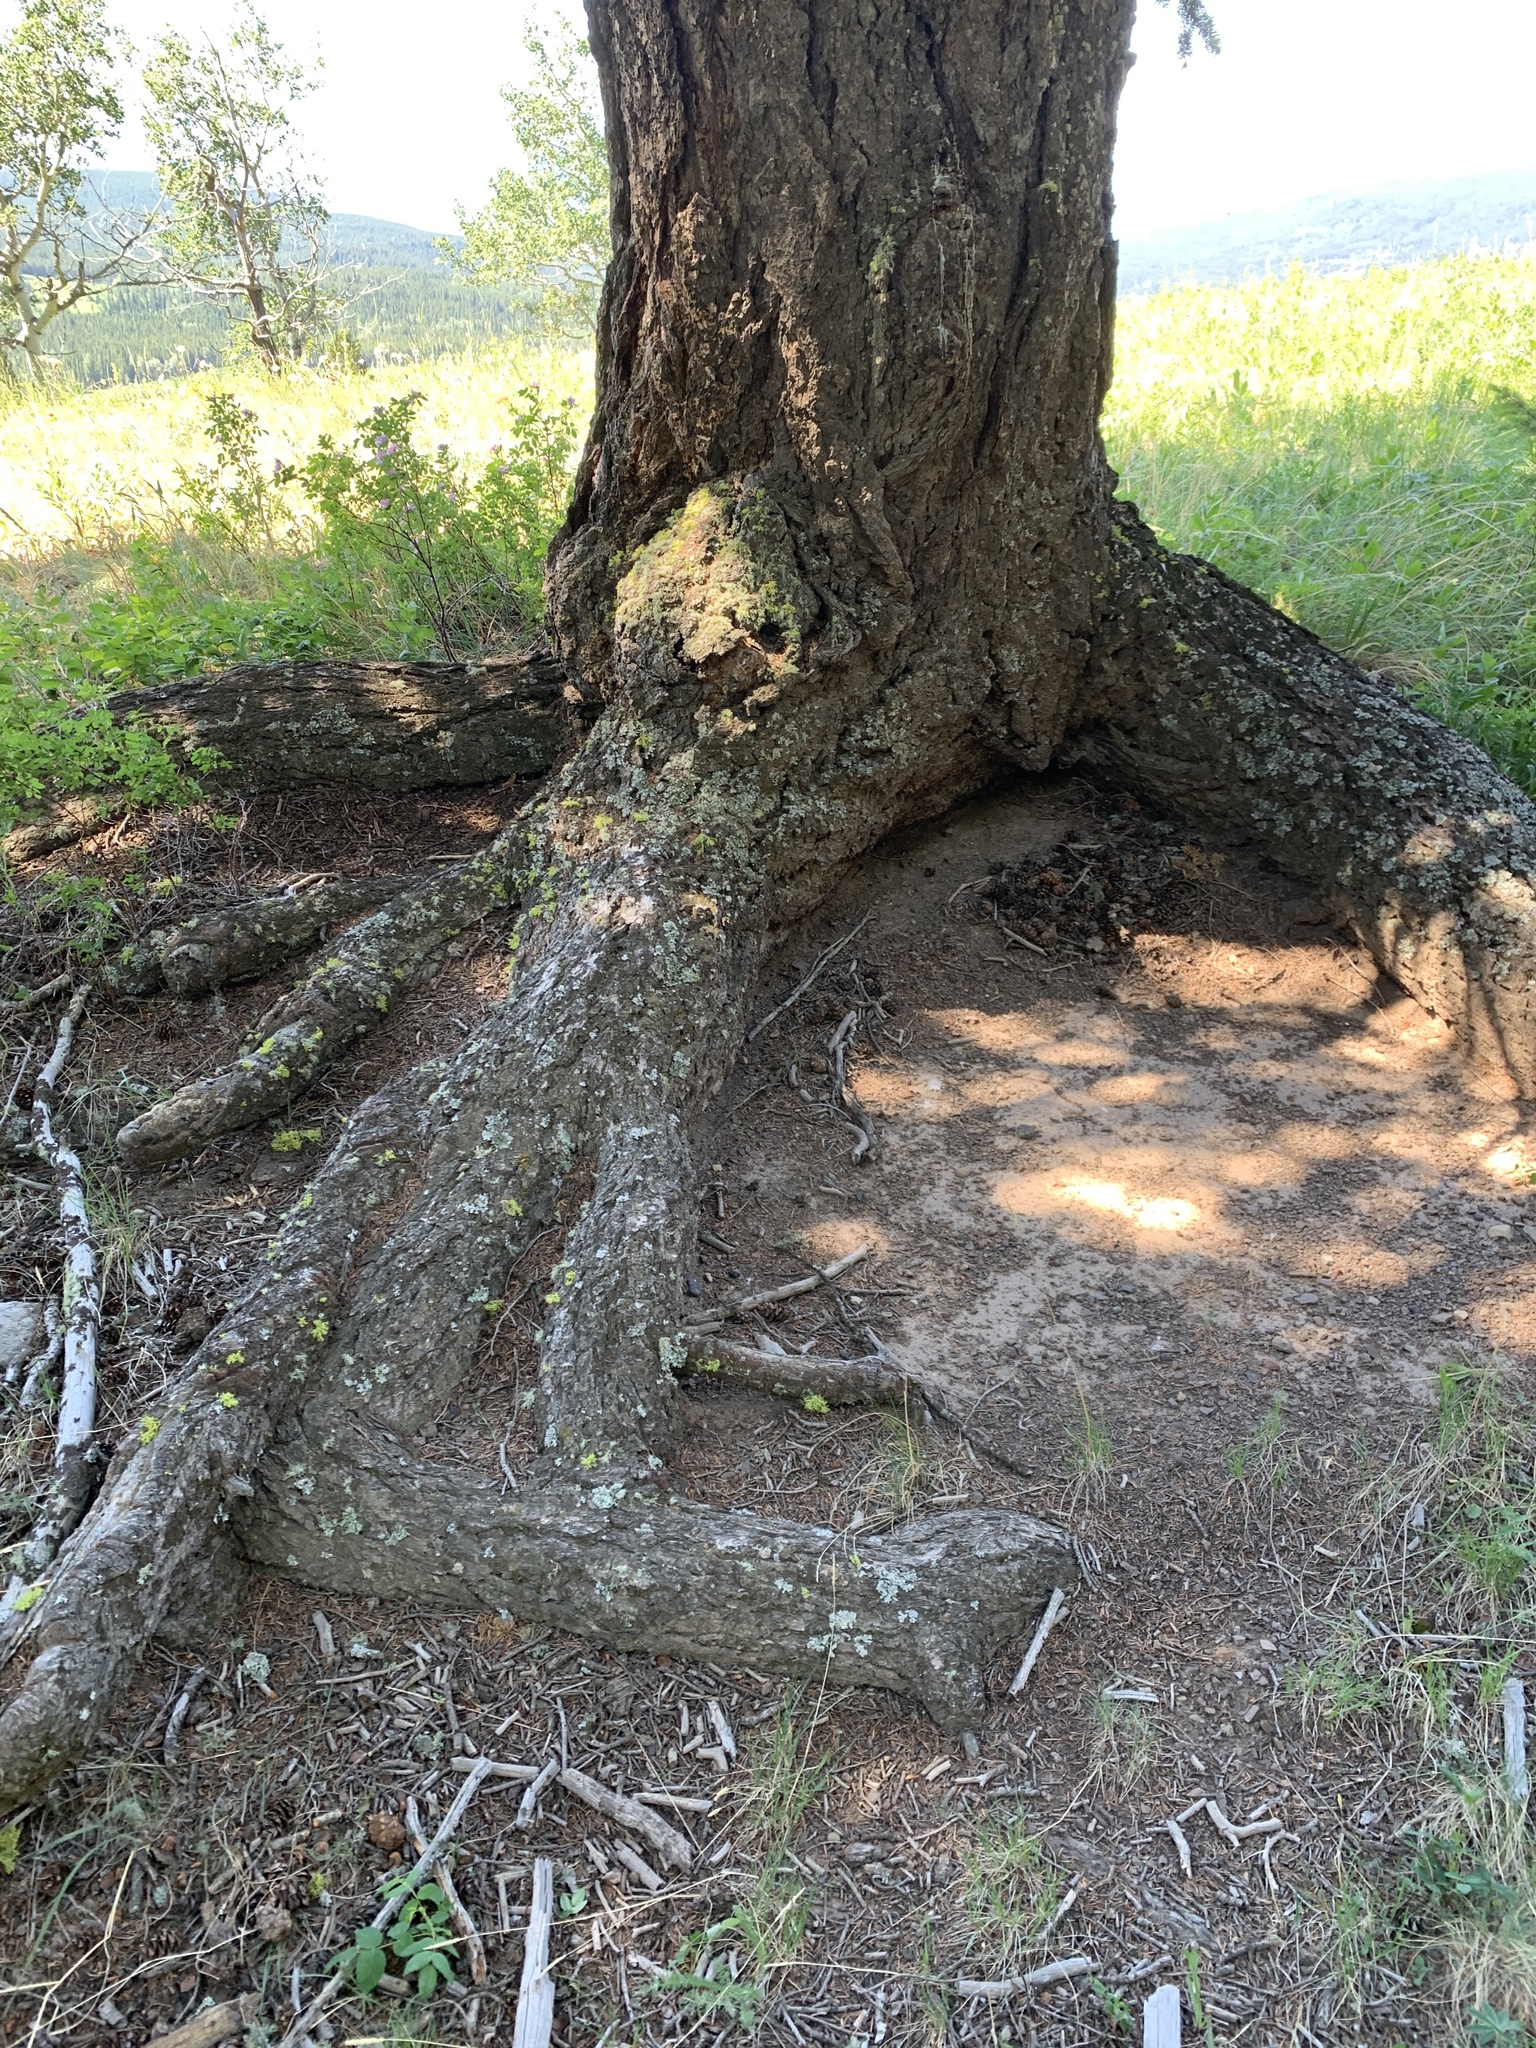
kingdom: Plantae
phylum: Tracheophyta
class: Pinopsida
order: Pinales
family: Pinaceae
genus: Pseudotsuga
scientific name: Pseudotsuga menziesii
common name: Douglas fir
